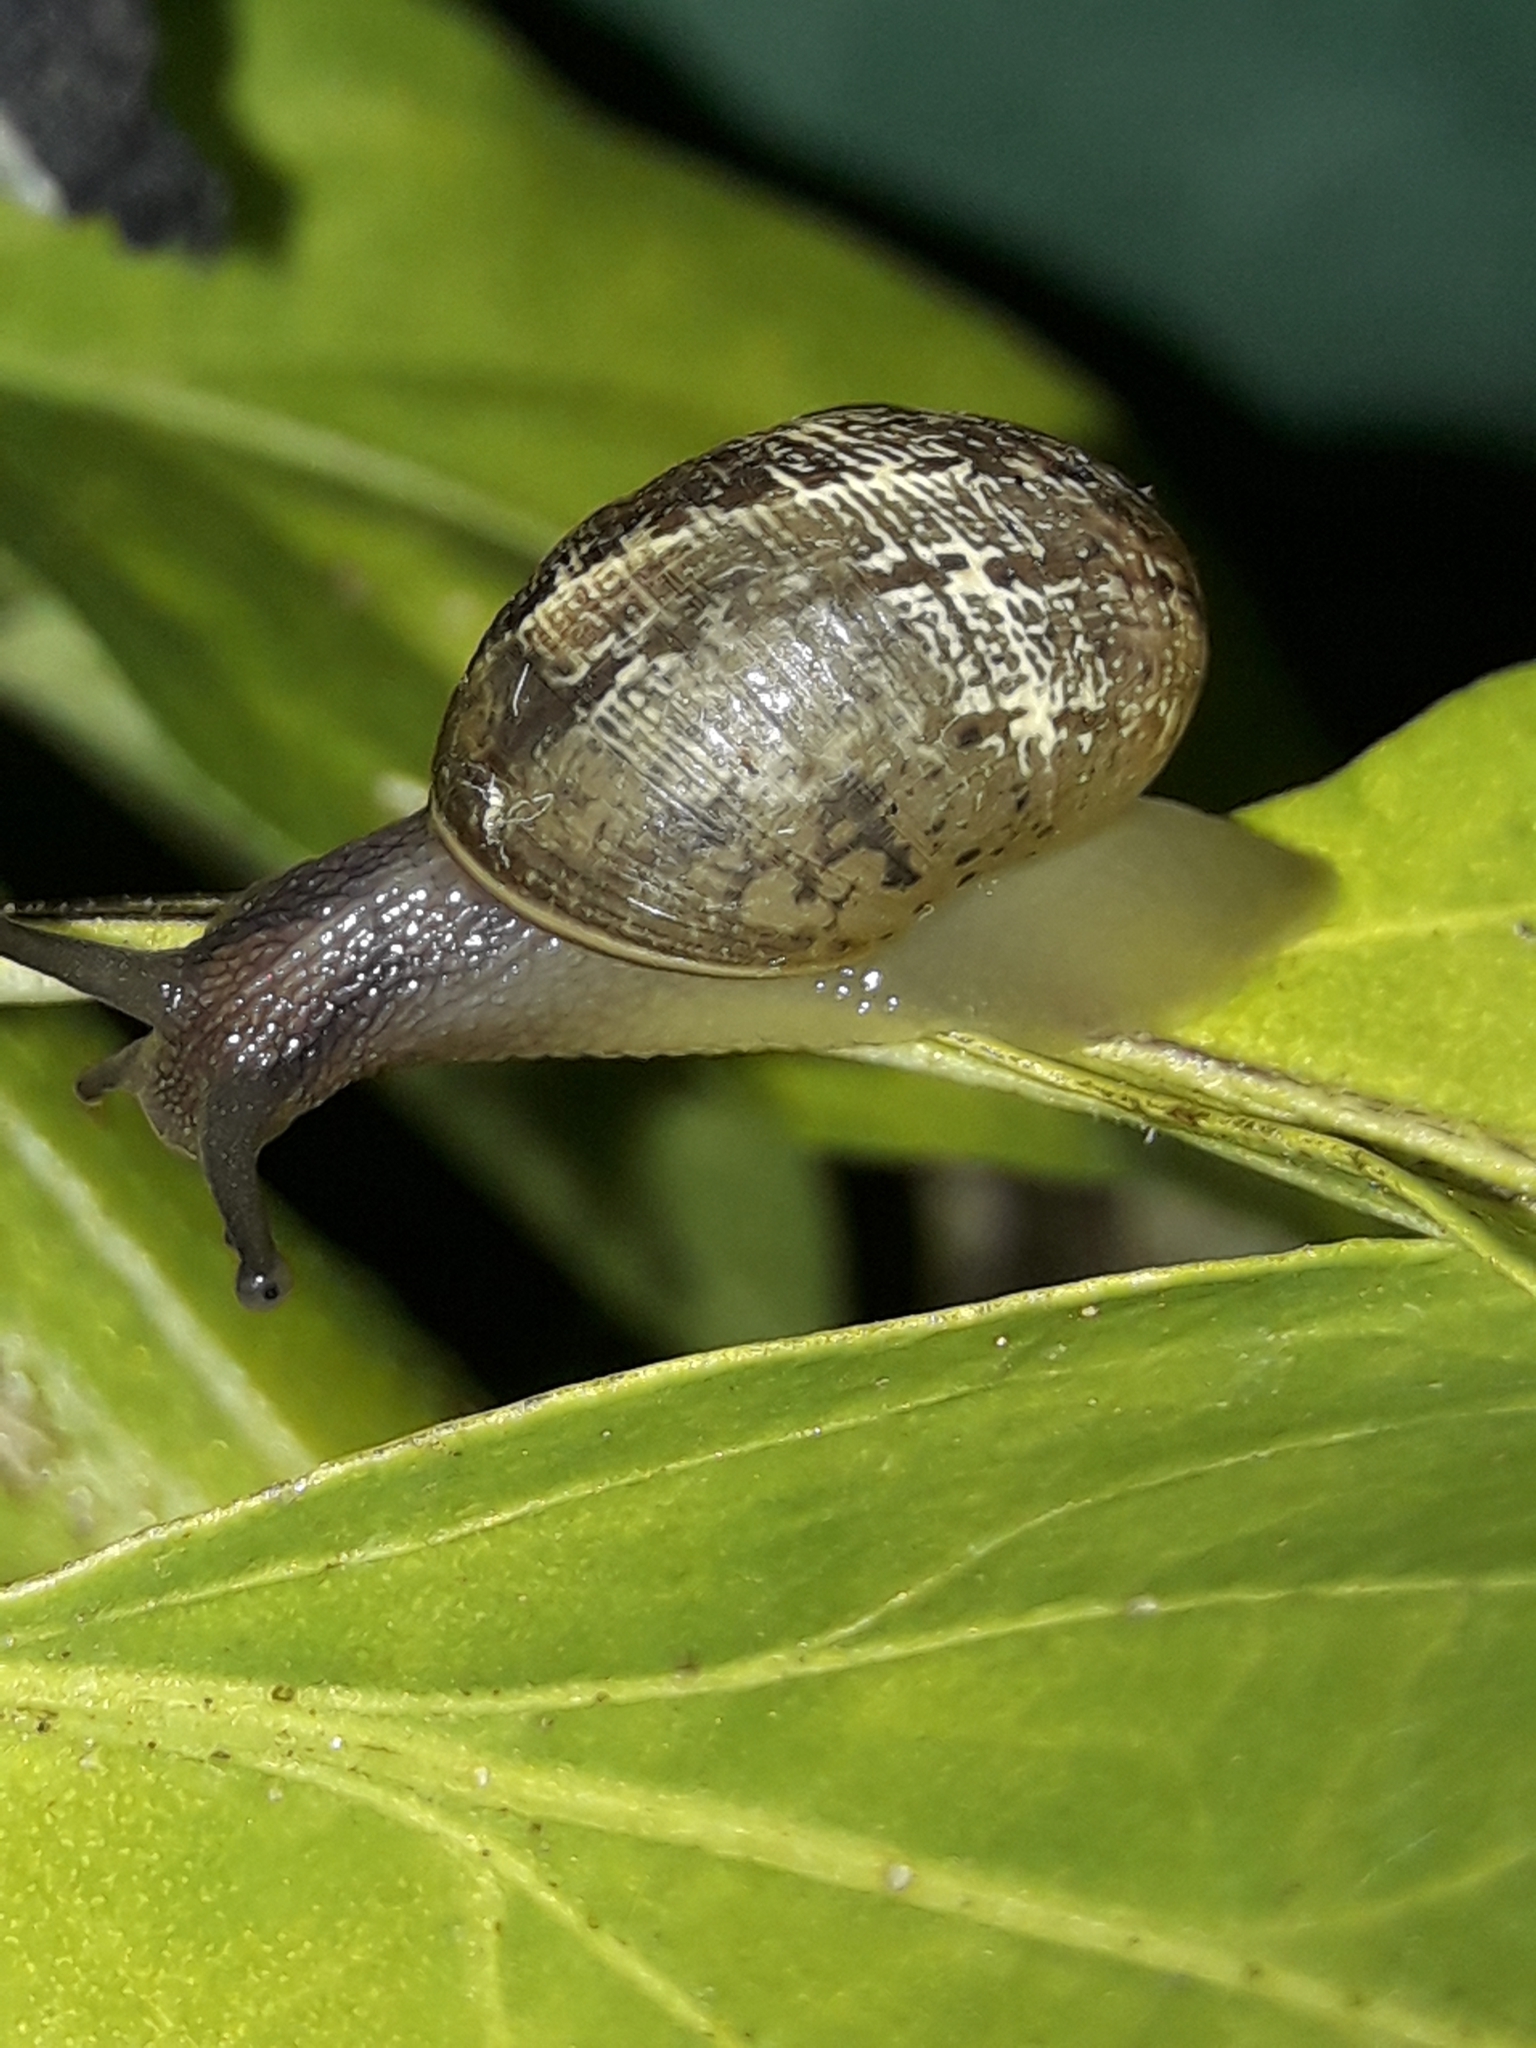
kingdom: Animalia
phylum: Mollusca
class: Gastropoda
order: Stylommatophora
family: Helicidae
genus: Cornu
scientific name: Cornu aspersum
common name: Brown garden snail
